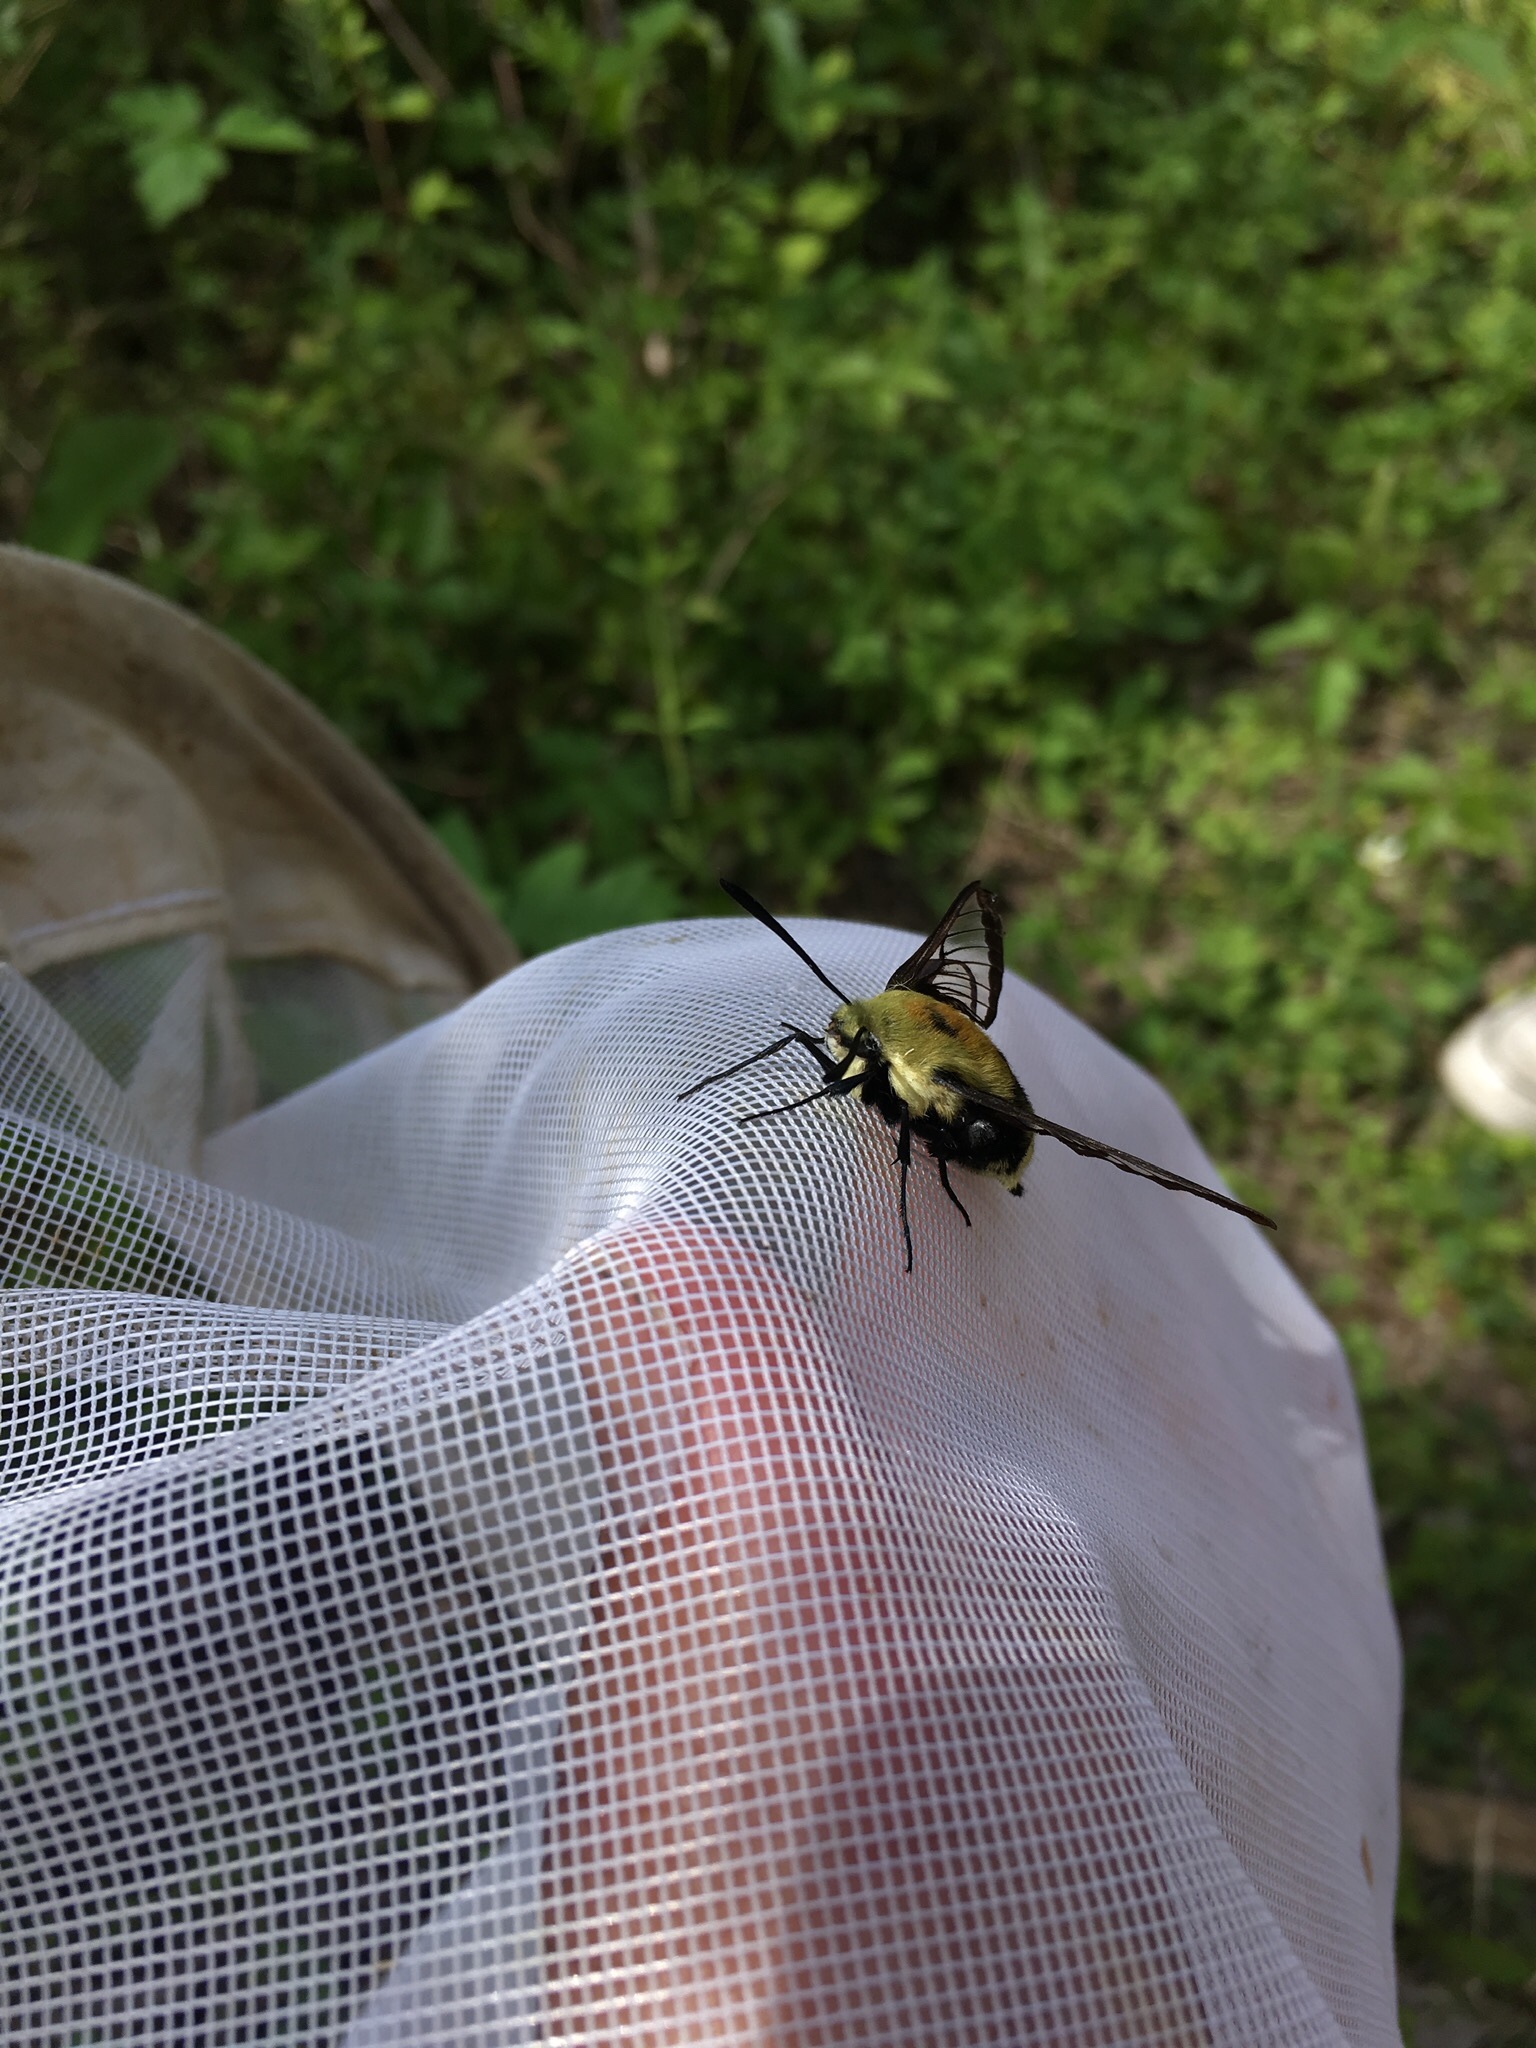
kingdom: Animalia
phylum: Arthropoda
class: Insecta
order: Lepidoptera
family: Sphingidae
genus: Hemaris
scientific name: Hemaris diffinis
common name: Bumblebee moth
